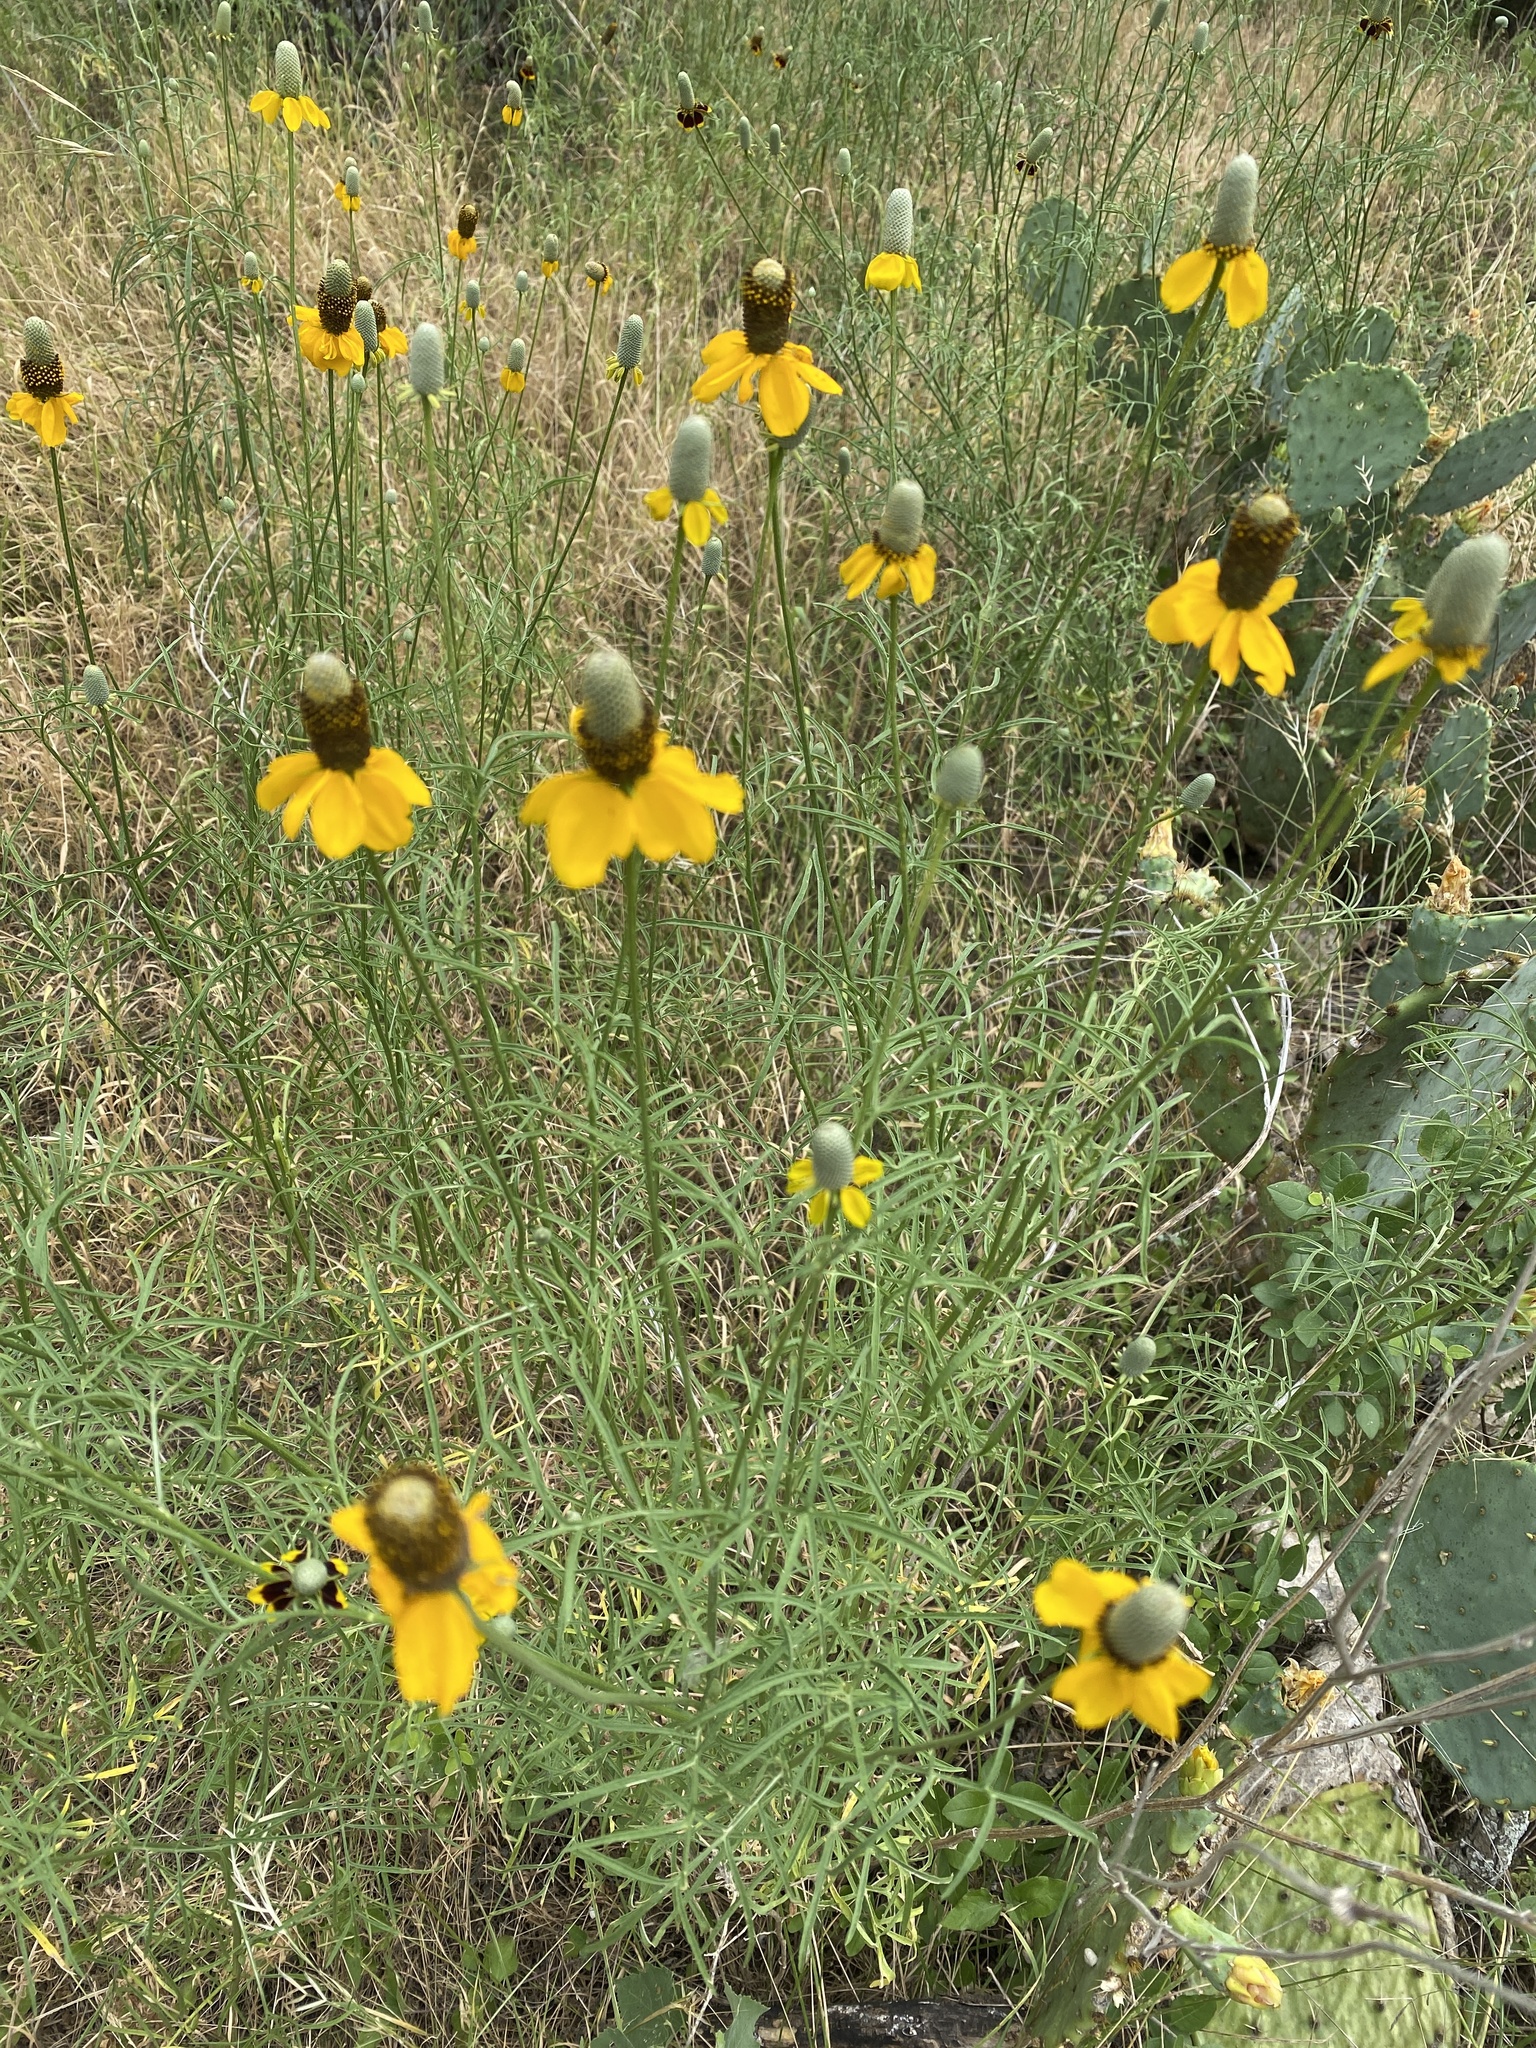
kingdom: Plantae
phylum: Tracheophyta
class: Magnoliopsida
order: Asterales
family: Asteraceae
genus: Ratibida
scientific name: Ratibida columnifera
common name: Prairie coneflower
